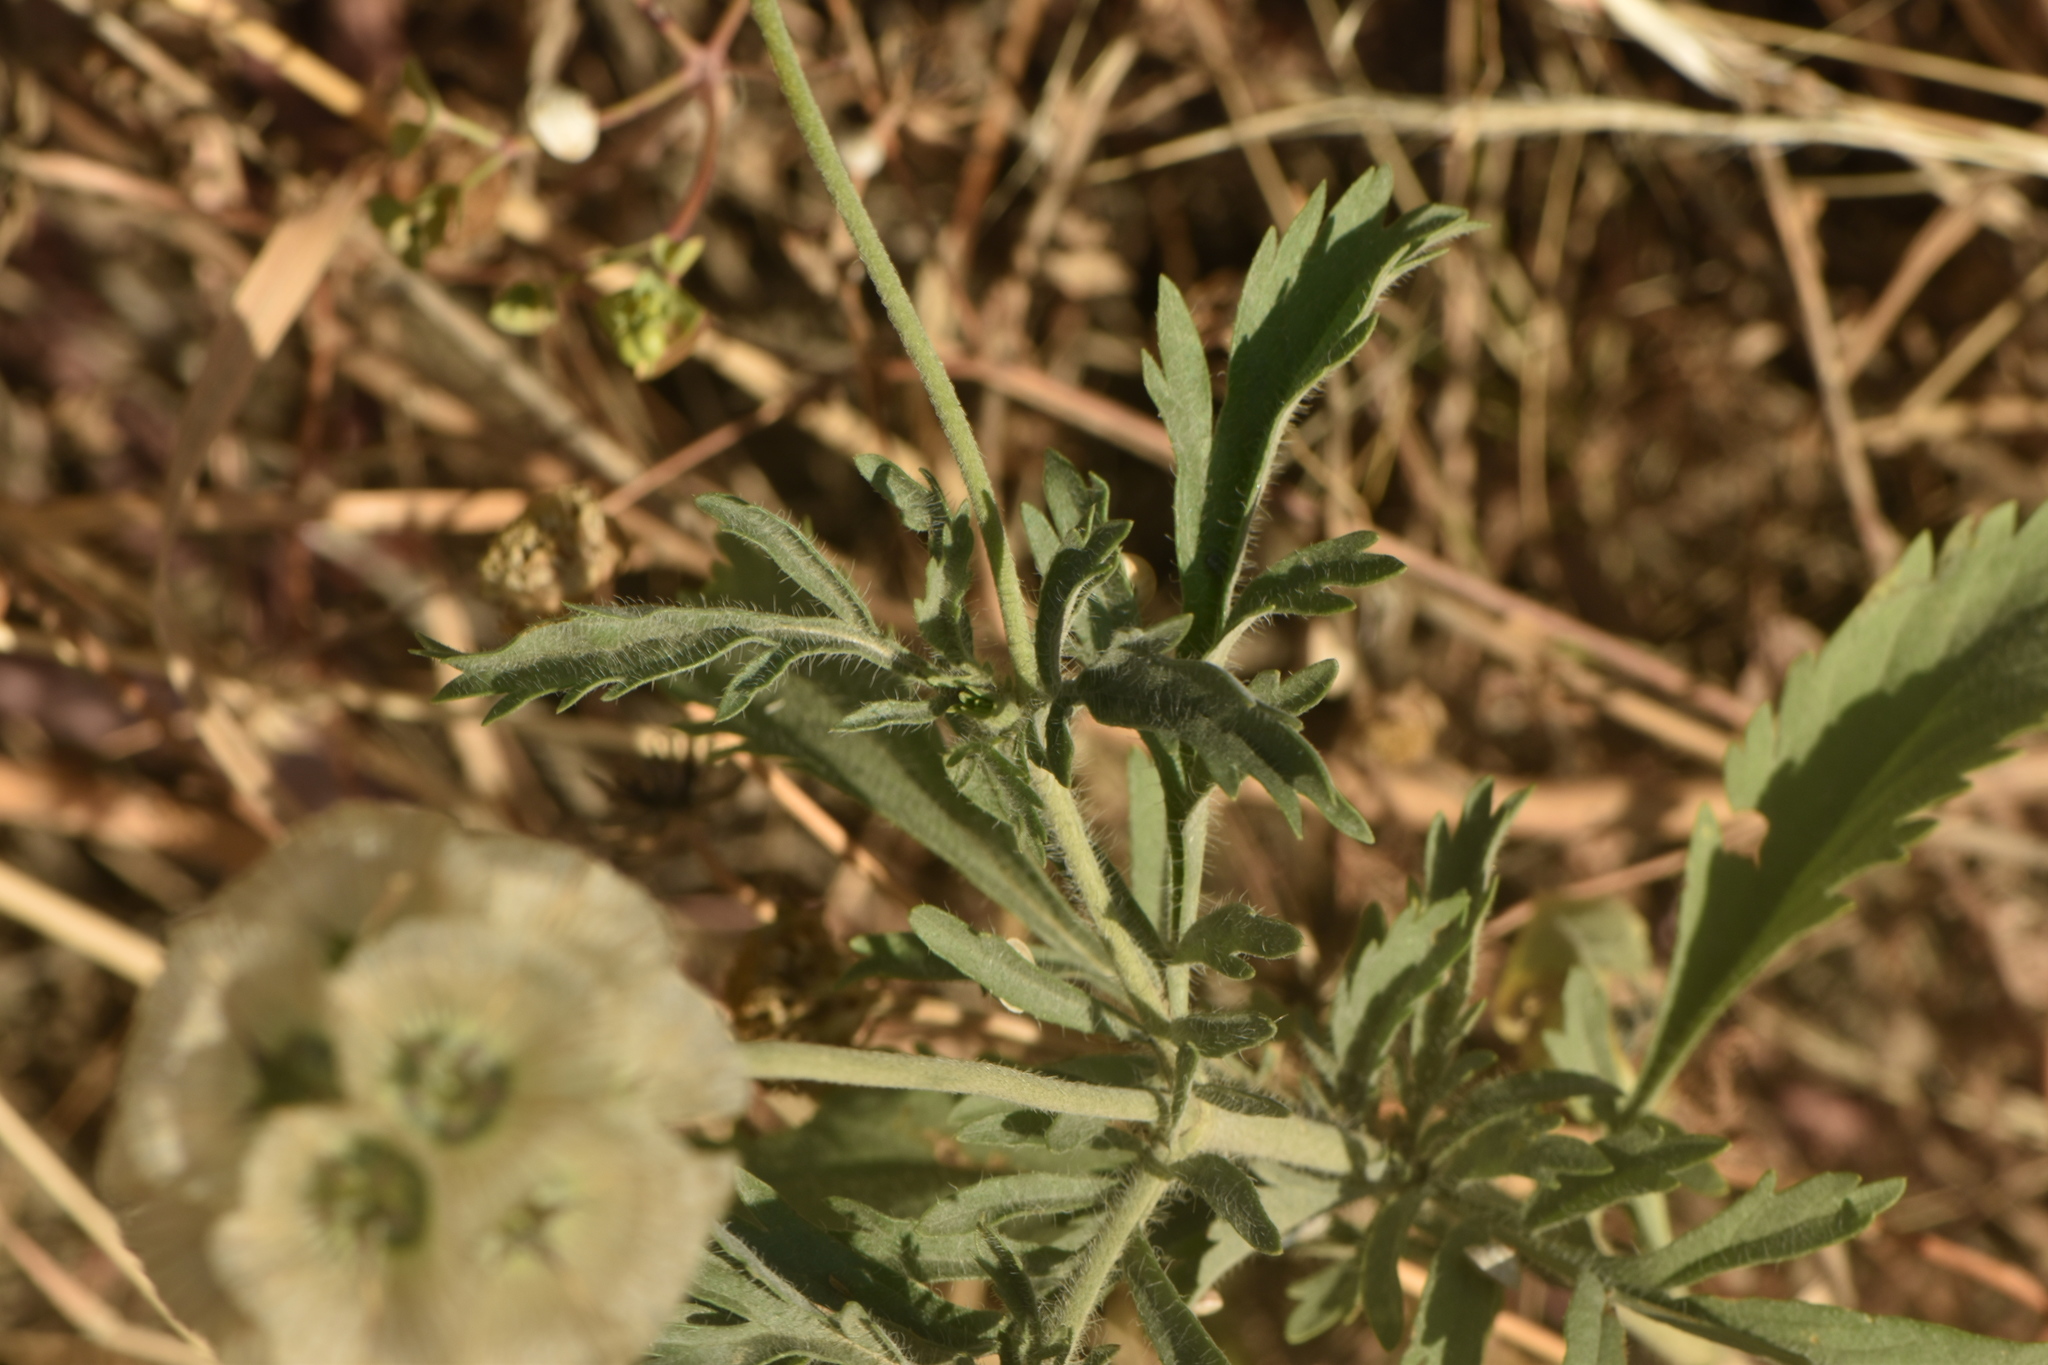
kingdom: Plantae
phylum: Tracheophyta
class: Magnoliopsida
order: Dipsacales
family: Caprifoliaceae
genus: Lomelosia
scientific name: Lomelosia simplex
